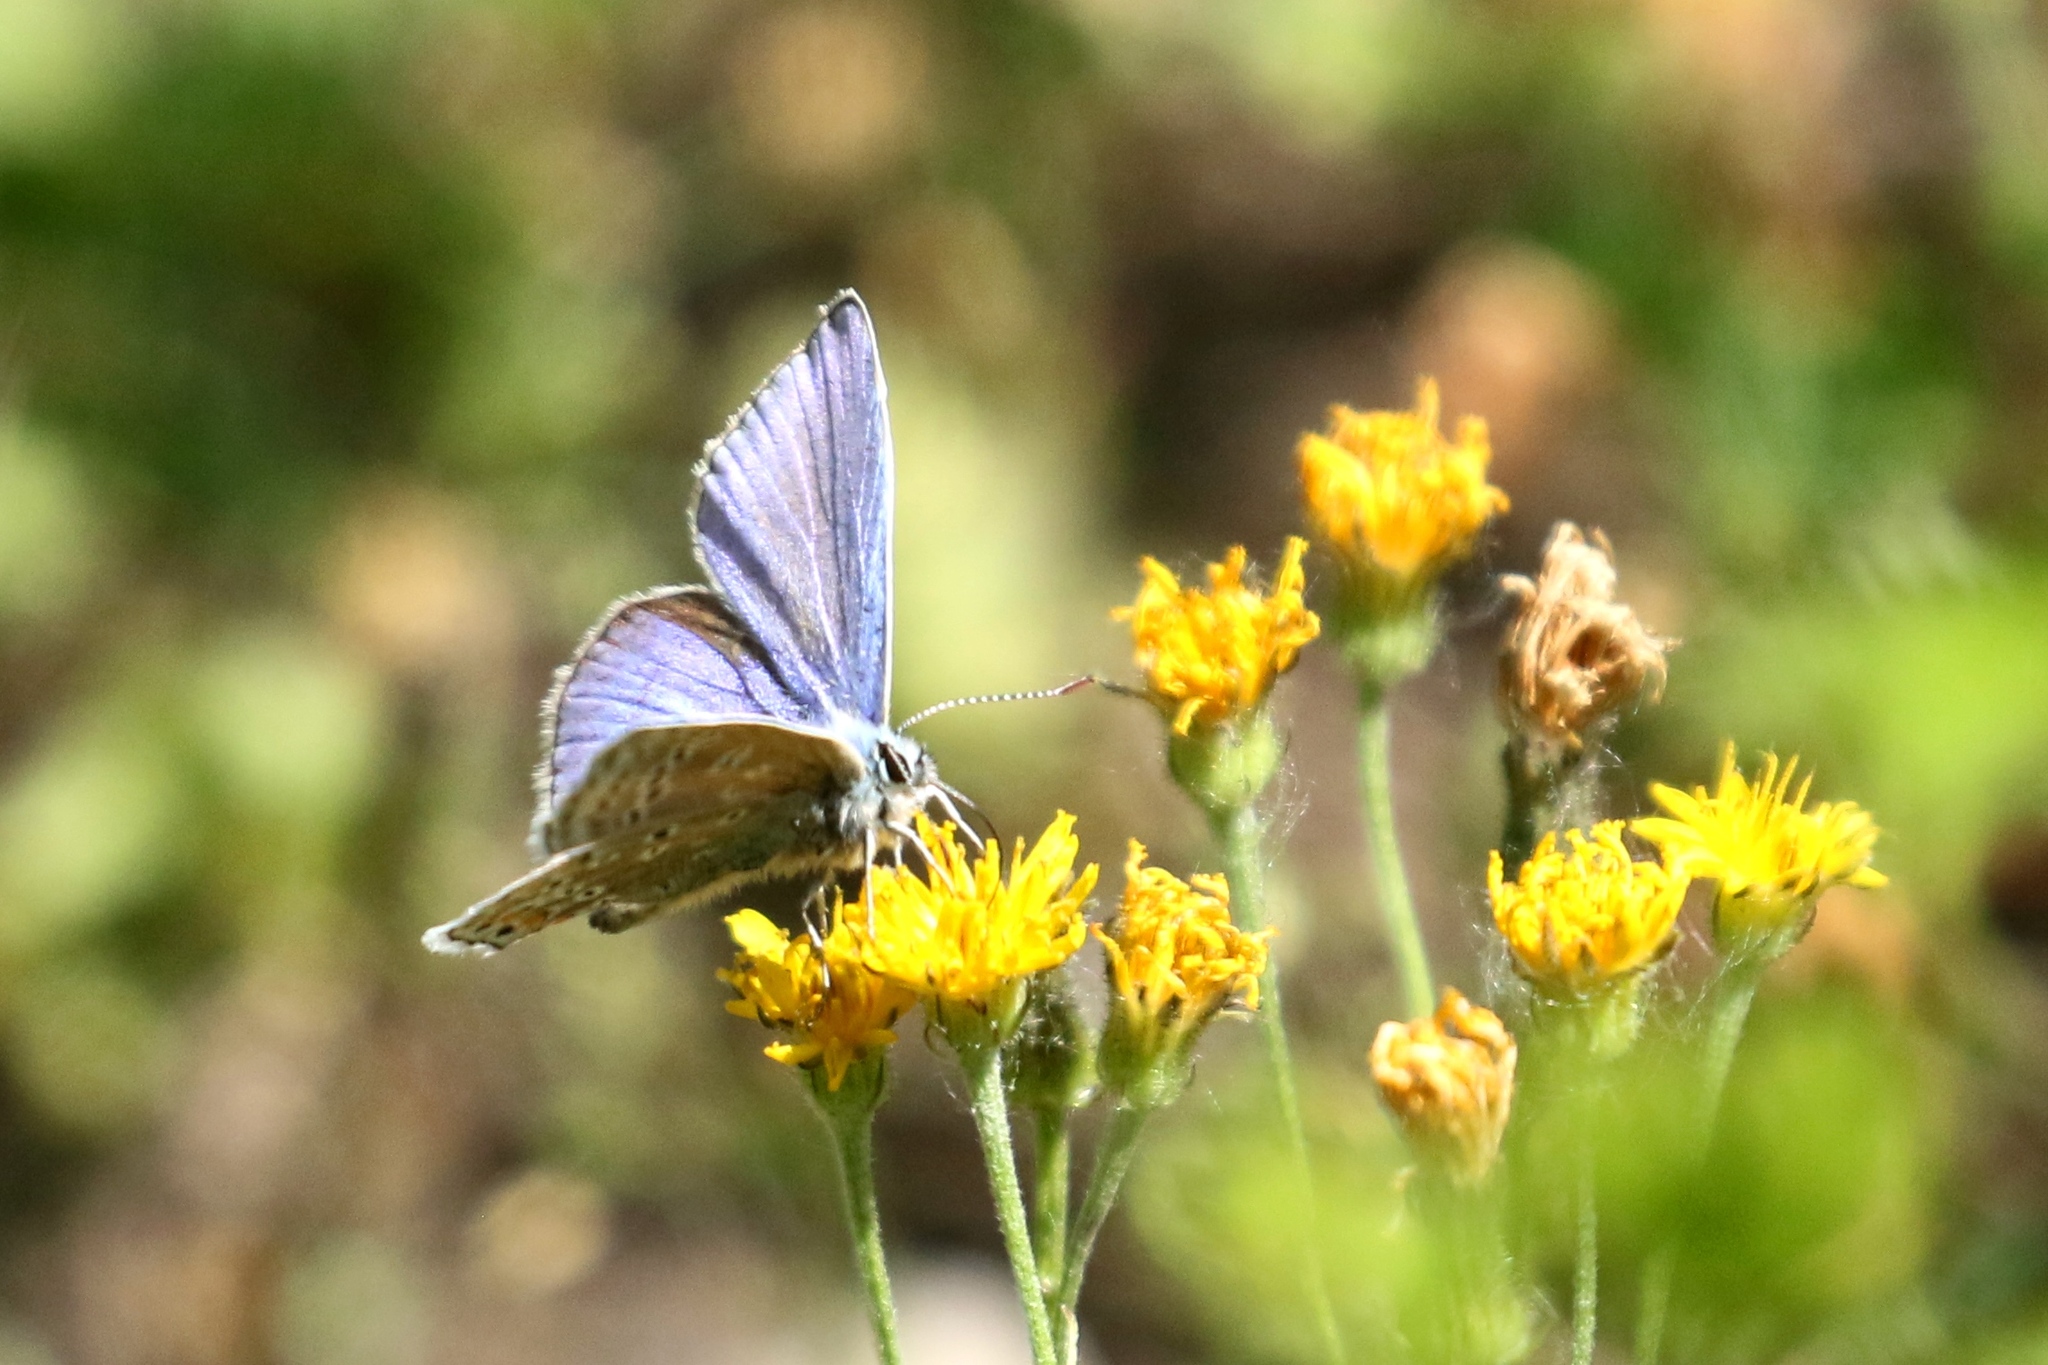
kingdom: Animalia
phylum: Arthropoda
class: Insecta
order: Lepidoptera
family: Lycaenidae
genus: Polyommatus
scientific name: Polyommatus icarus
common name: Common blue
